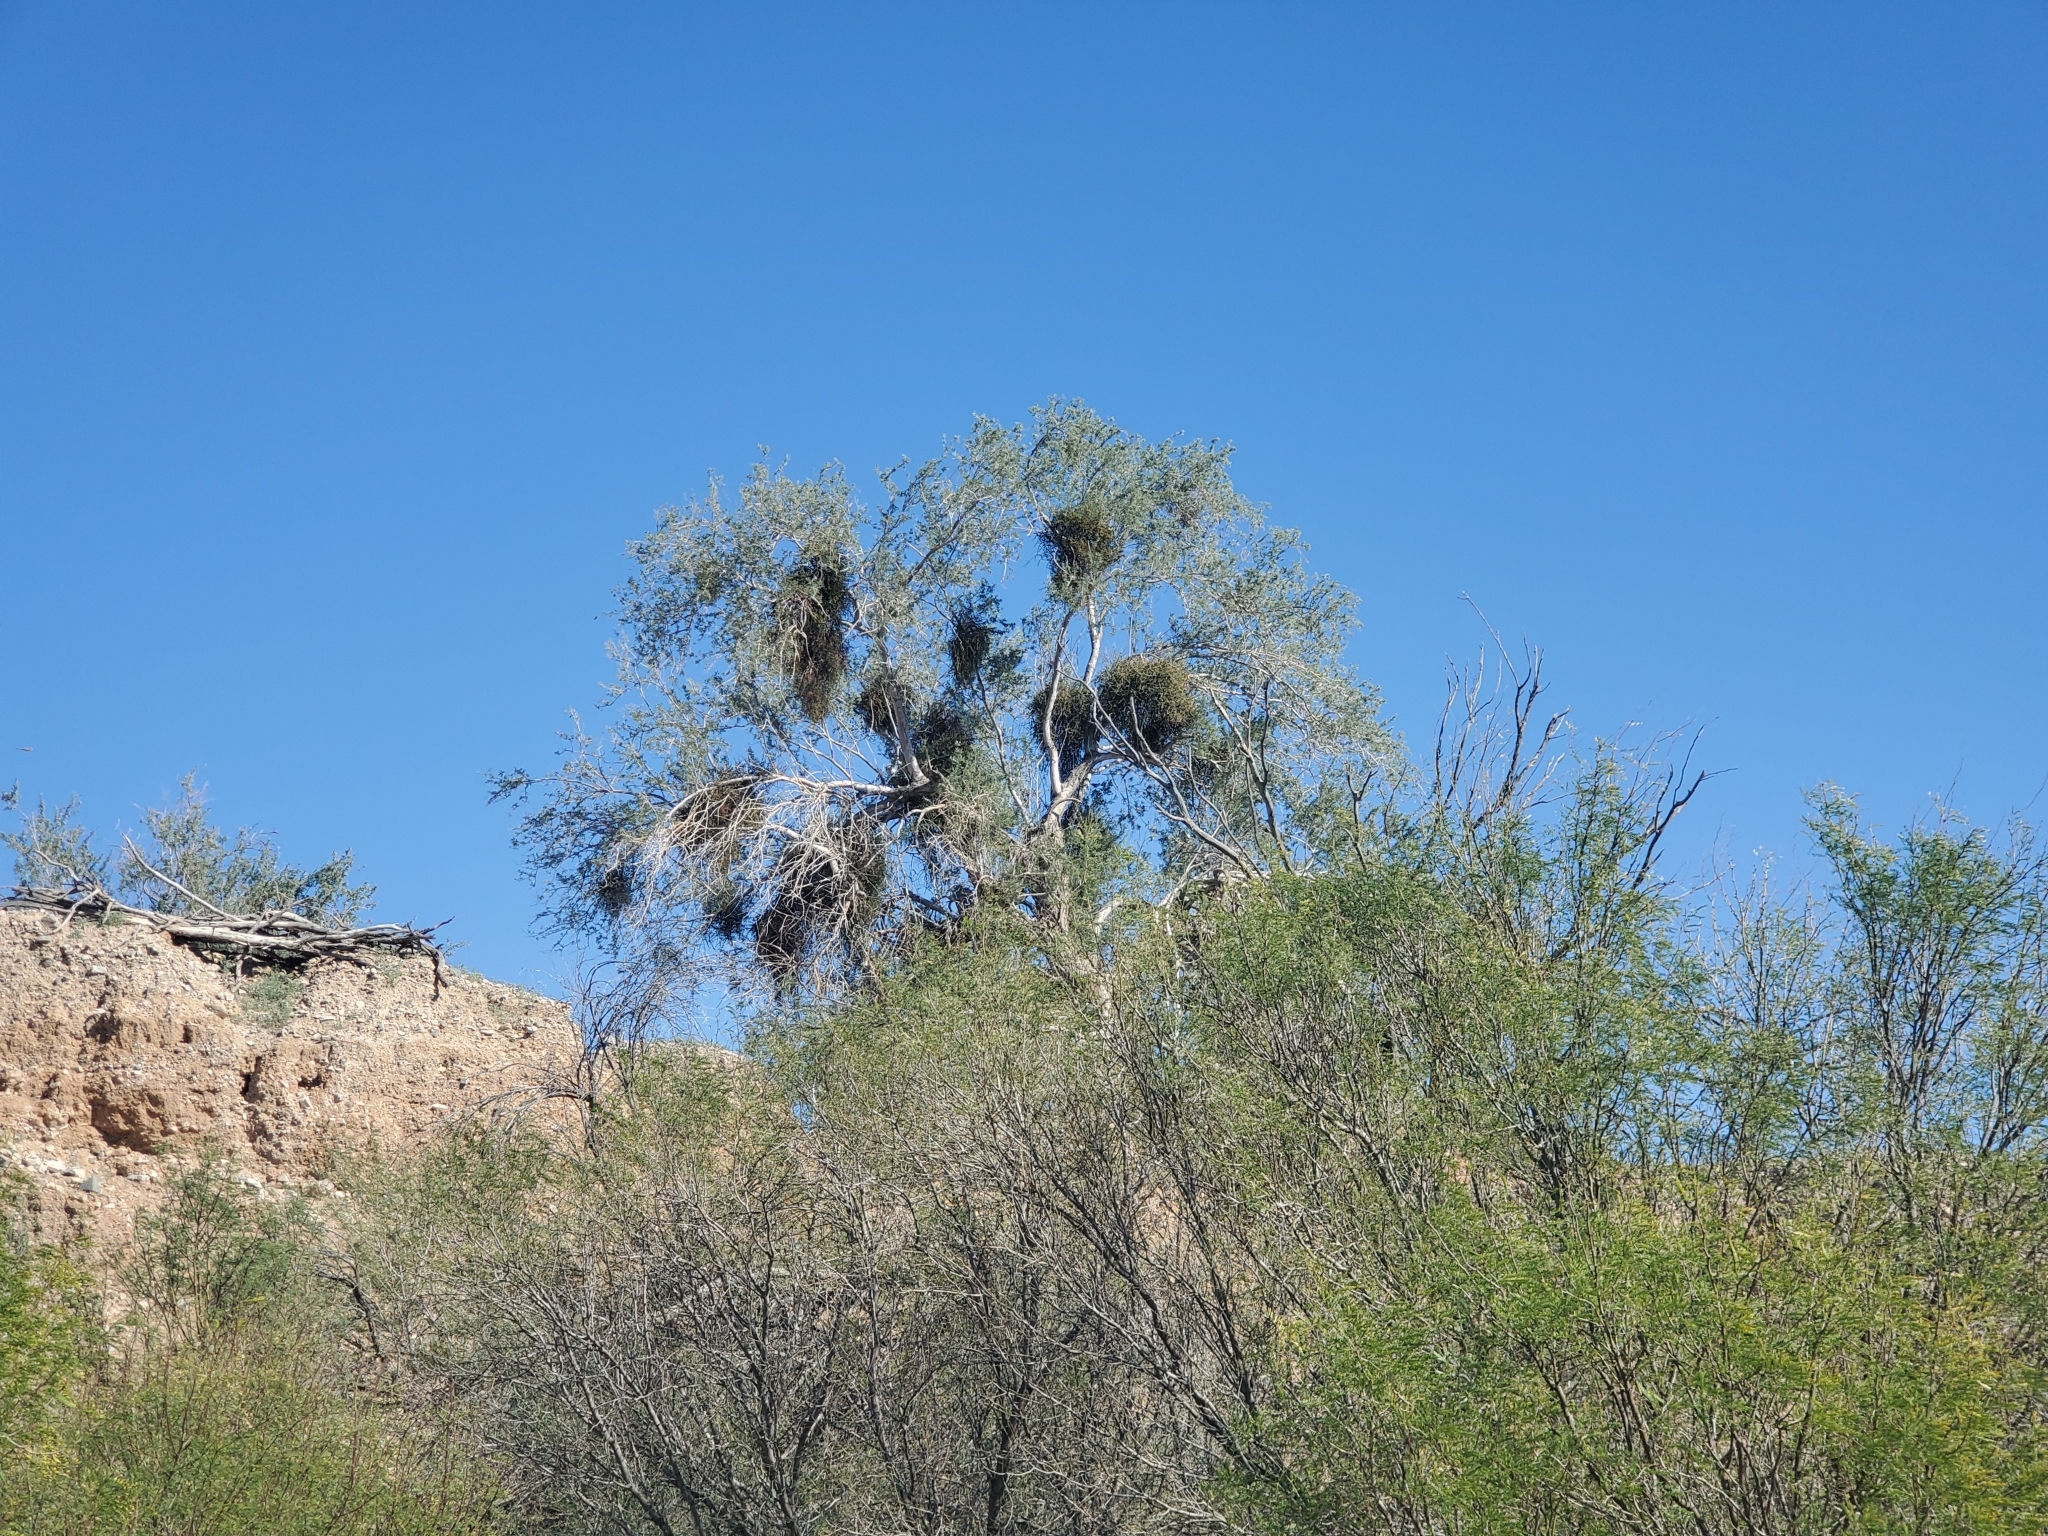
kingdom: Plantae
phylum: Tracheophyta
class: Magnoliopsida
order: Santalales
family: Viscaceae
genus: Phoradendron
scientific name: Phoradendron californicum
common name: Acacia mistletoe
